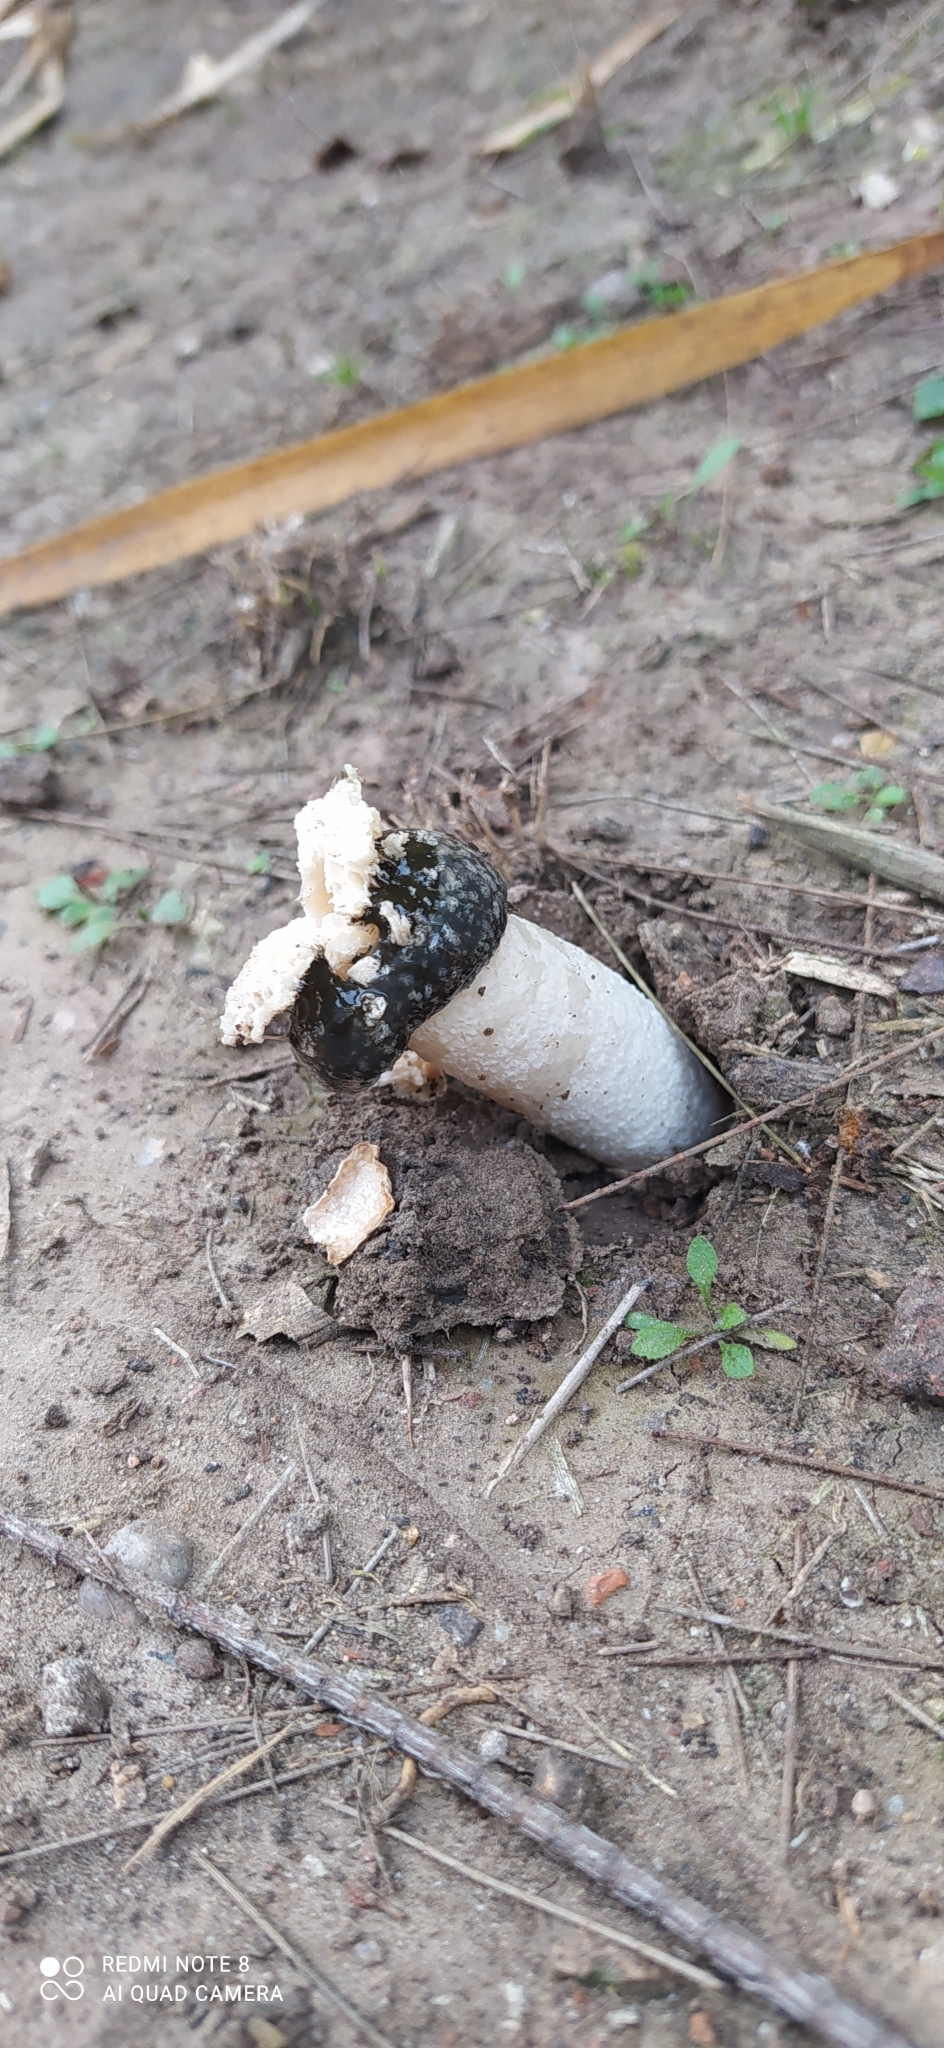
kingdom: Fungi
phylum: Basidiomycota
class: Agaricomycetes
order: Phallales
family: Phallaceae
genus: Itajahya
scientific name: Itajahya galericulata
